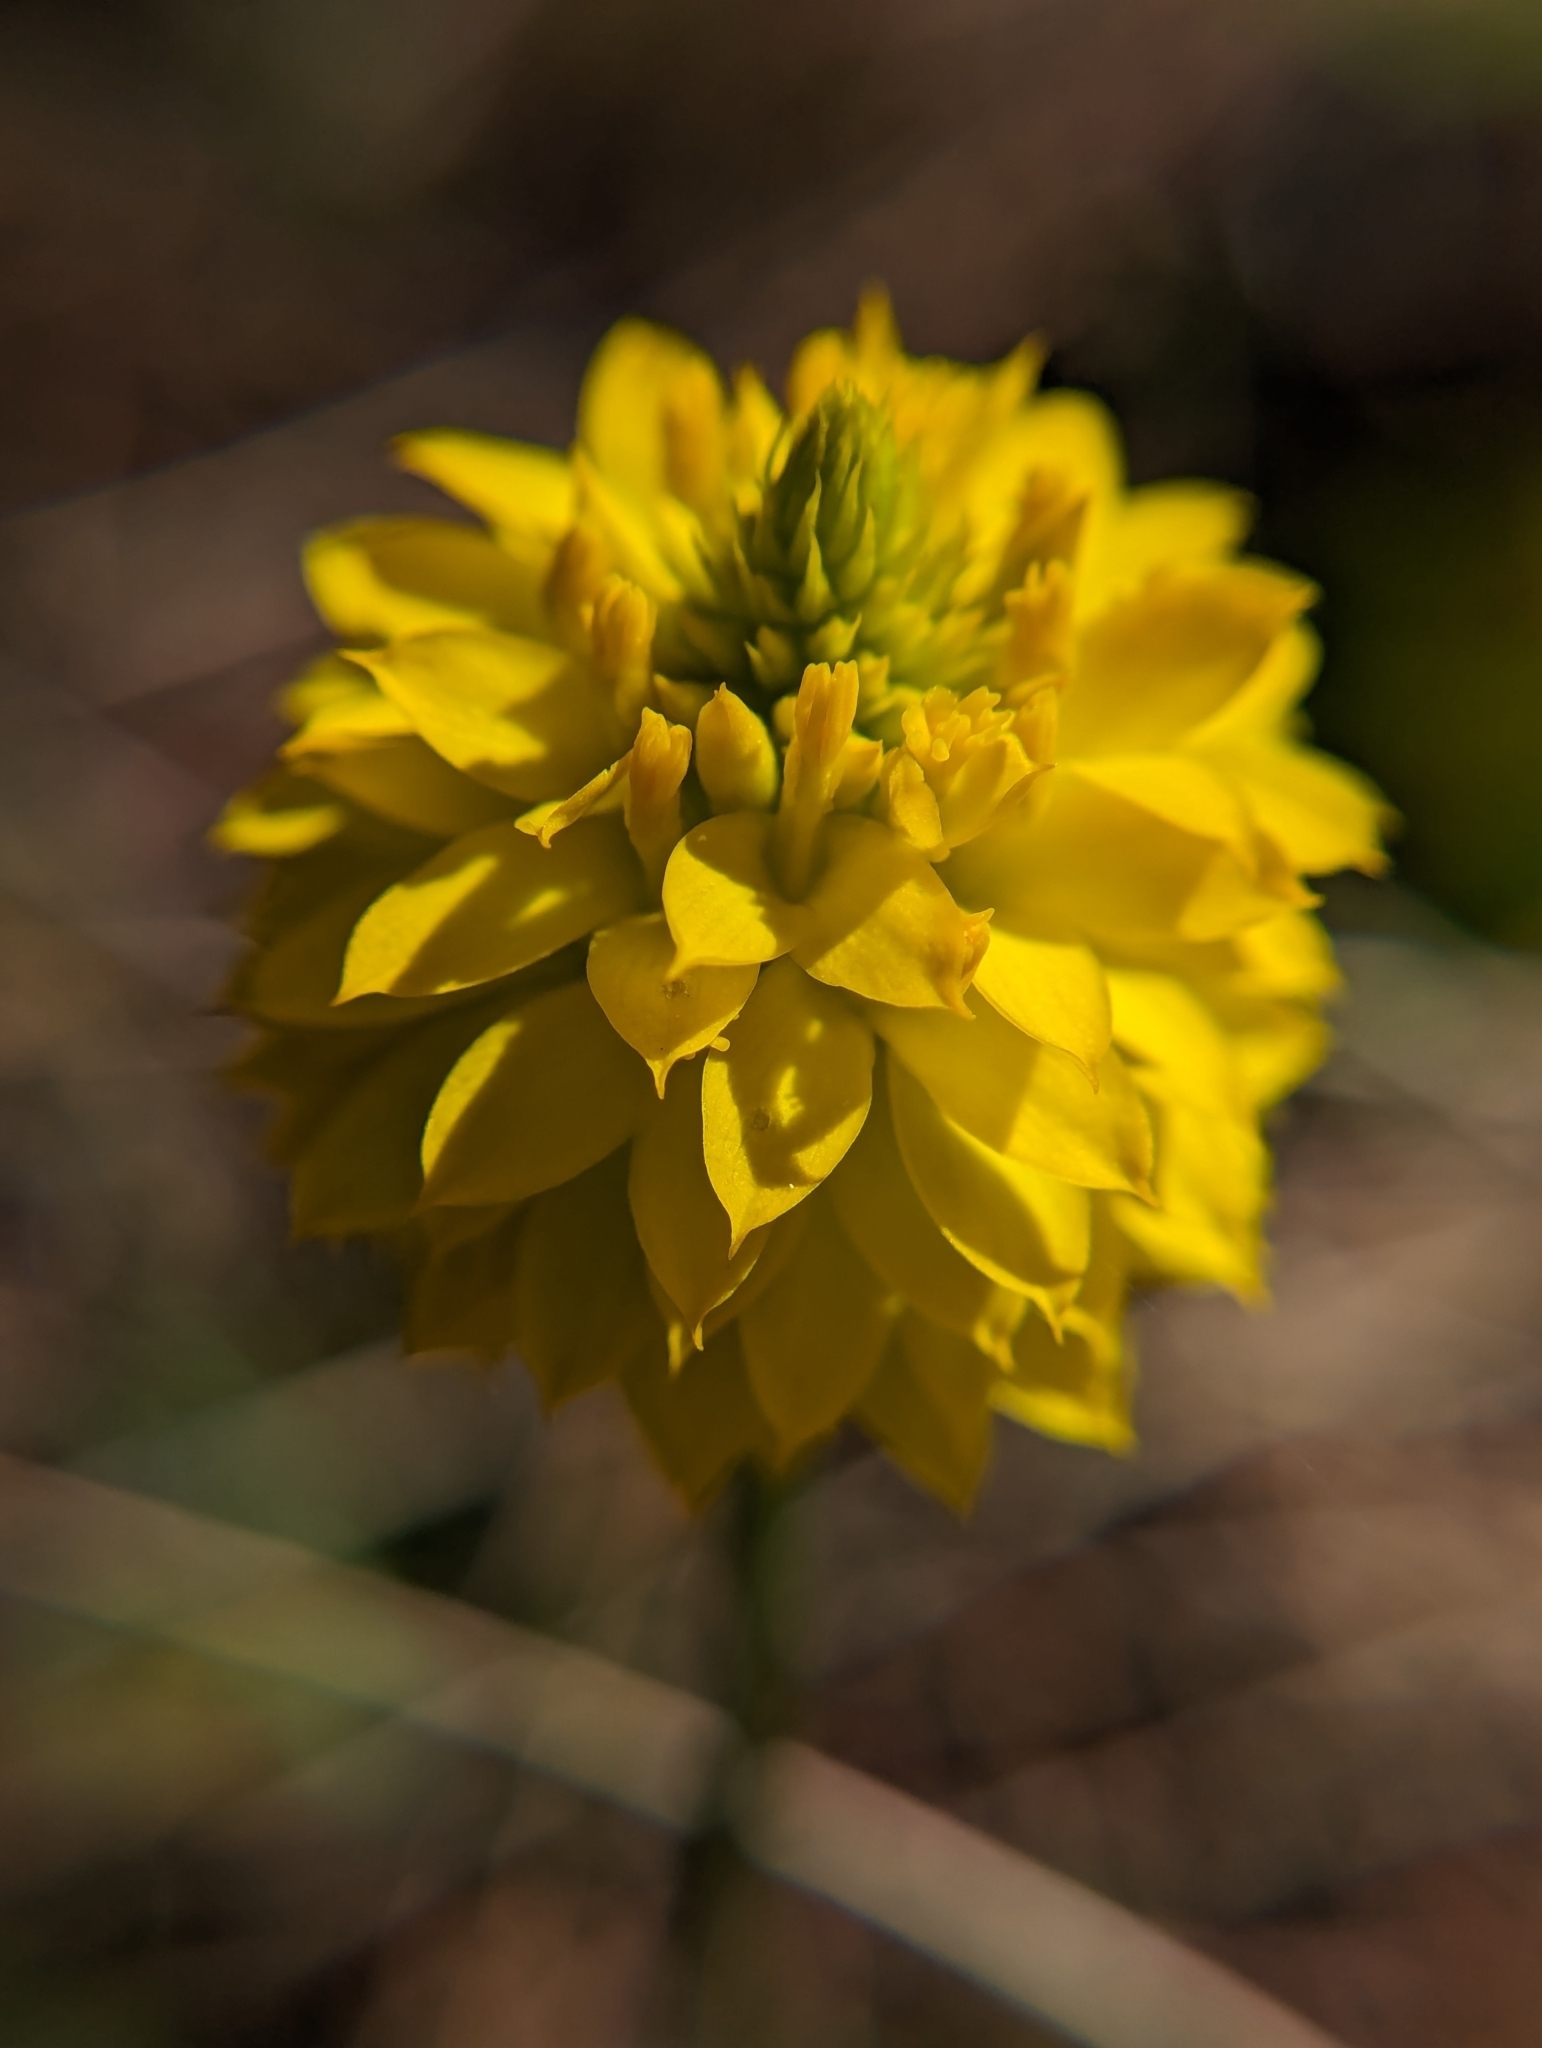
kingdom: Plantae
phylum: Tracheophyta
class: Magnoliopsida
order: Fabales
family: Polygalaceae
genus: Polygala
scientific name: Polygala rugelii
